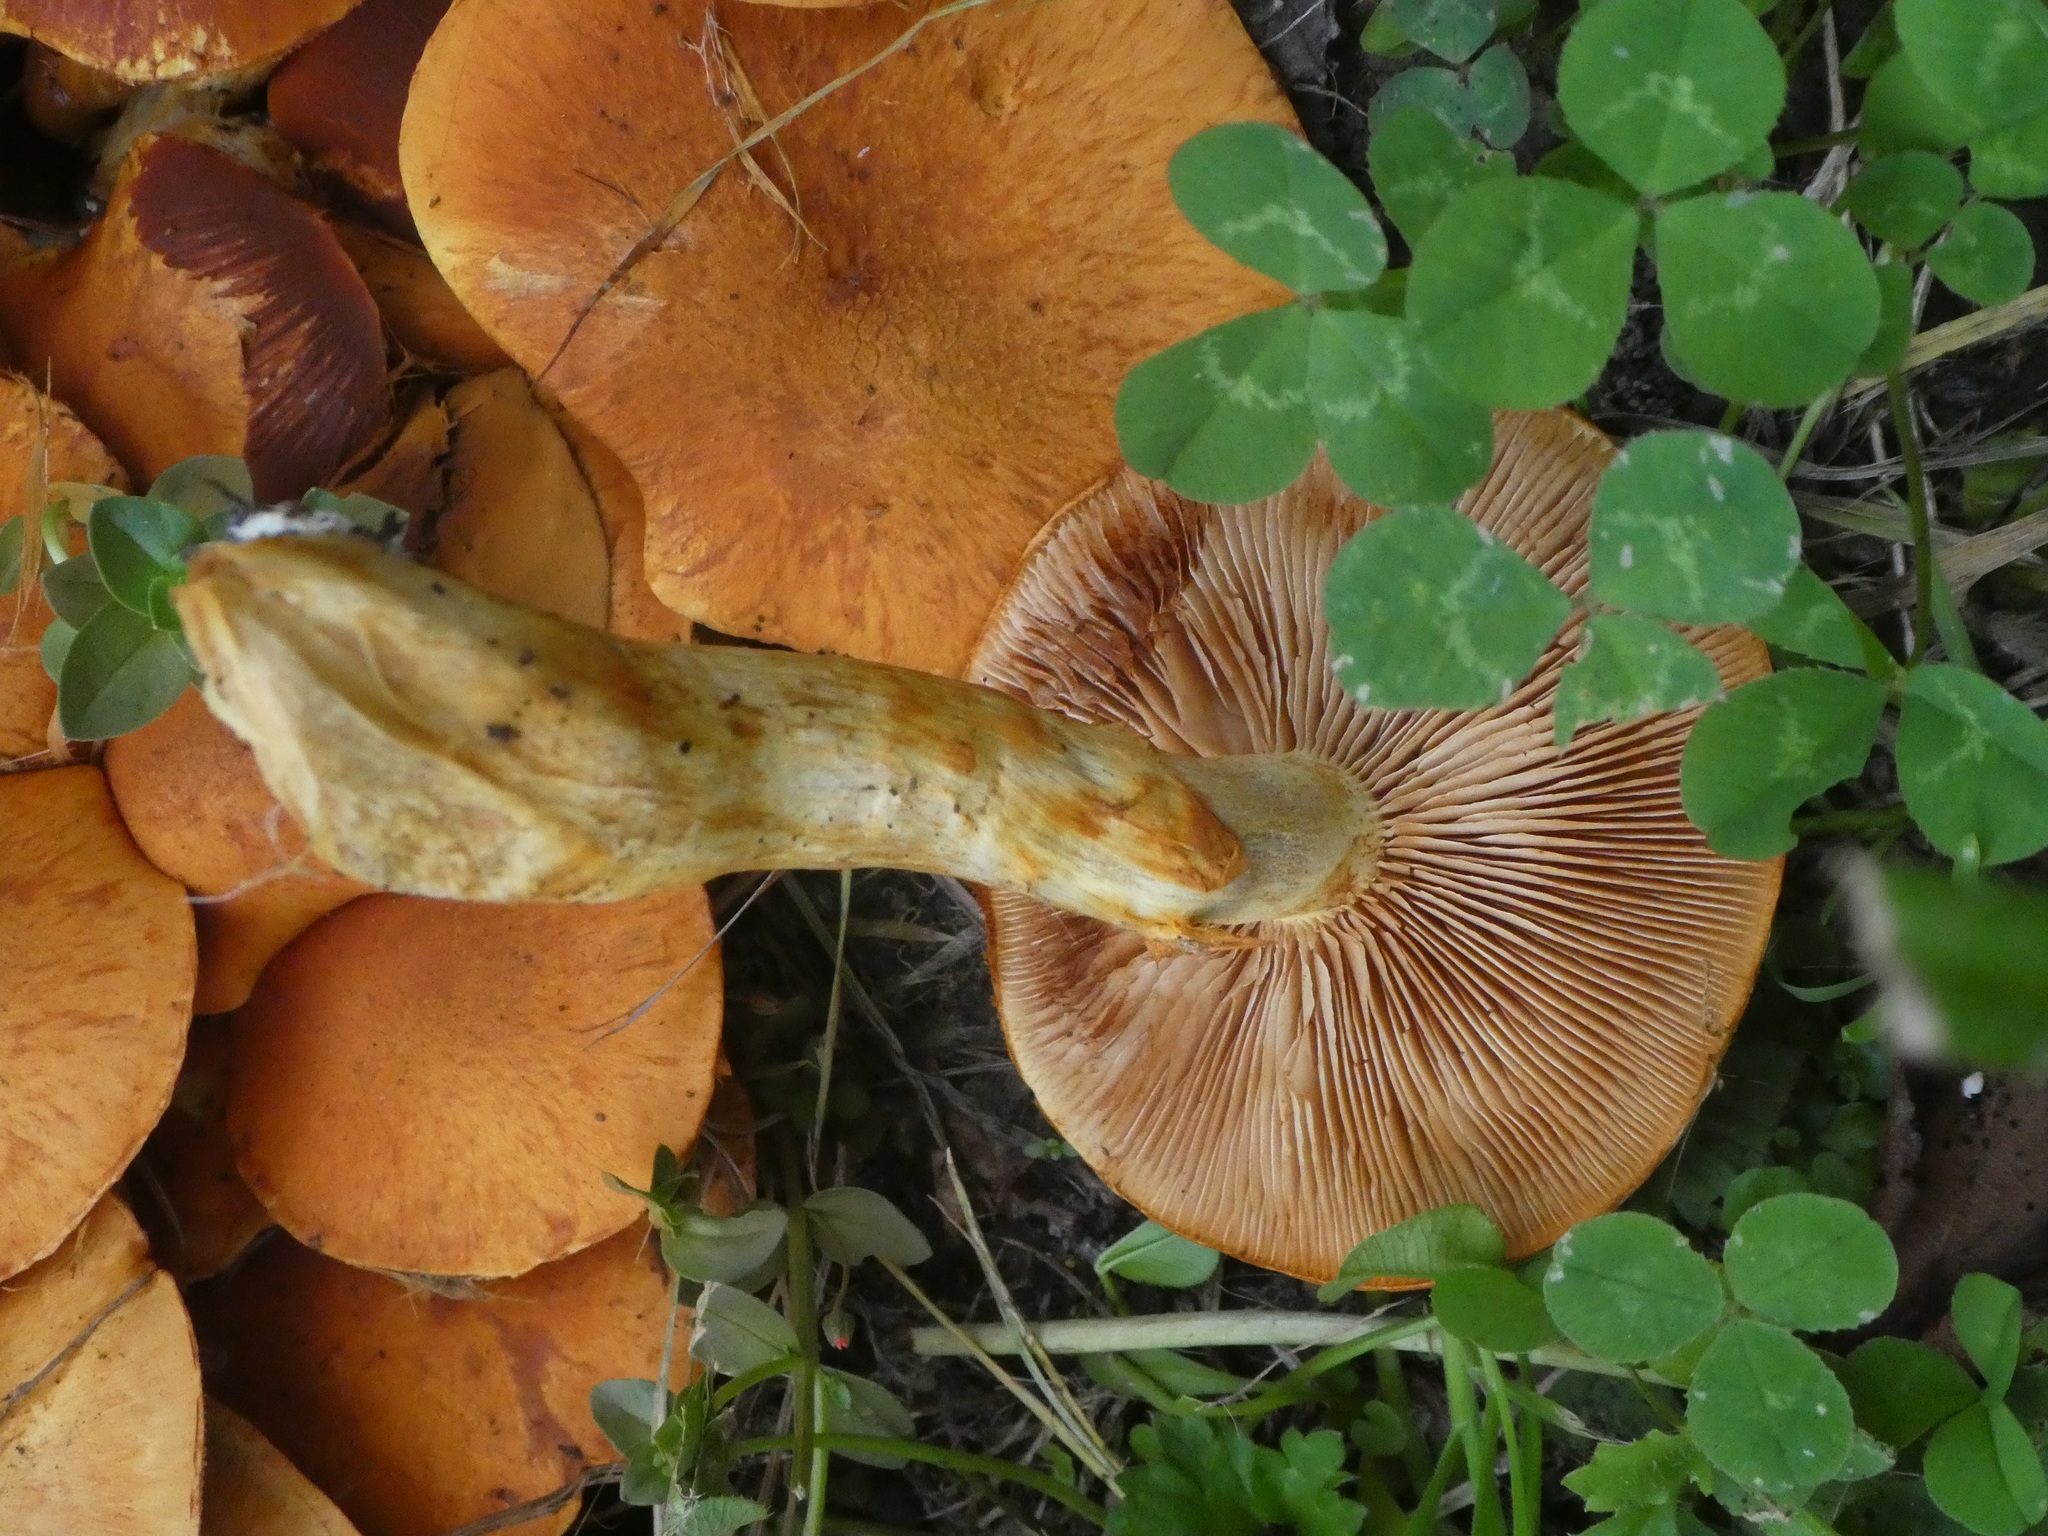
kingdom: Fungi
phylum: Basidiomycota
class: Agaricomycetes
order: Agaricales
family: Hymenogastraceae
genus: Gymnopilus
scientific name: Gymnopilus junonius
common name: Spectacular rustgill
